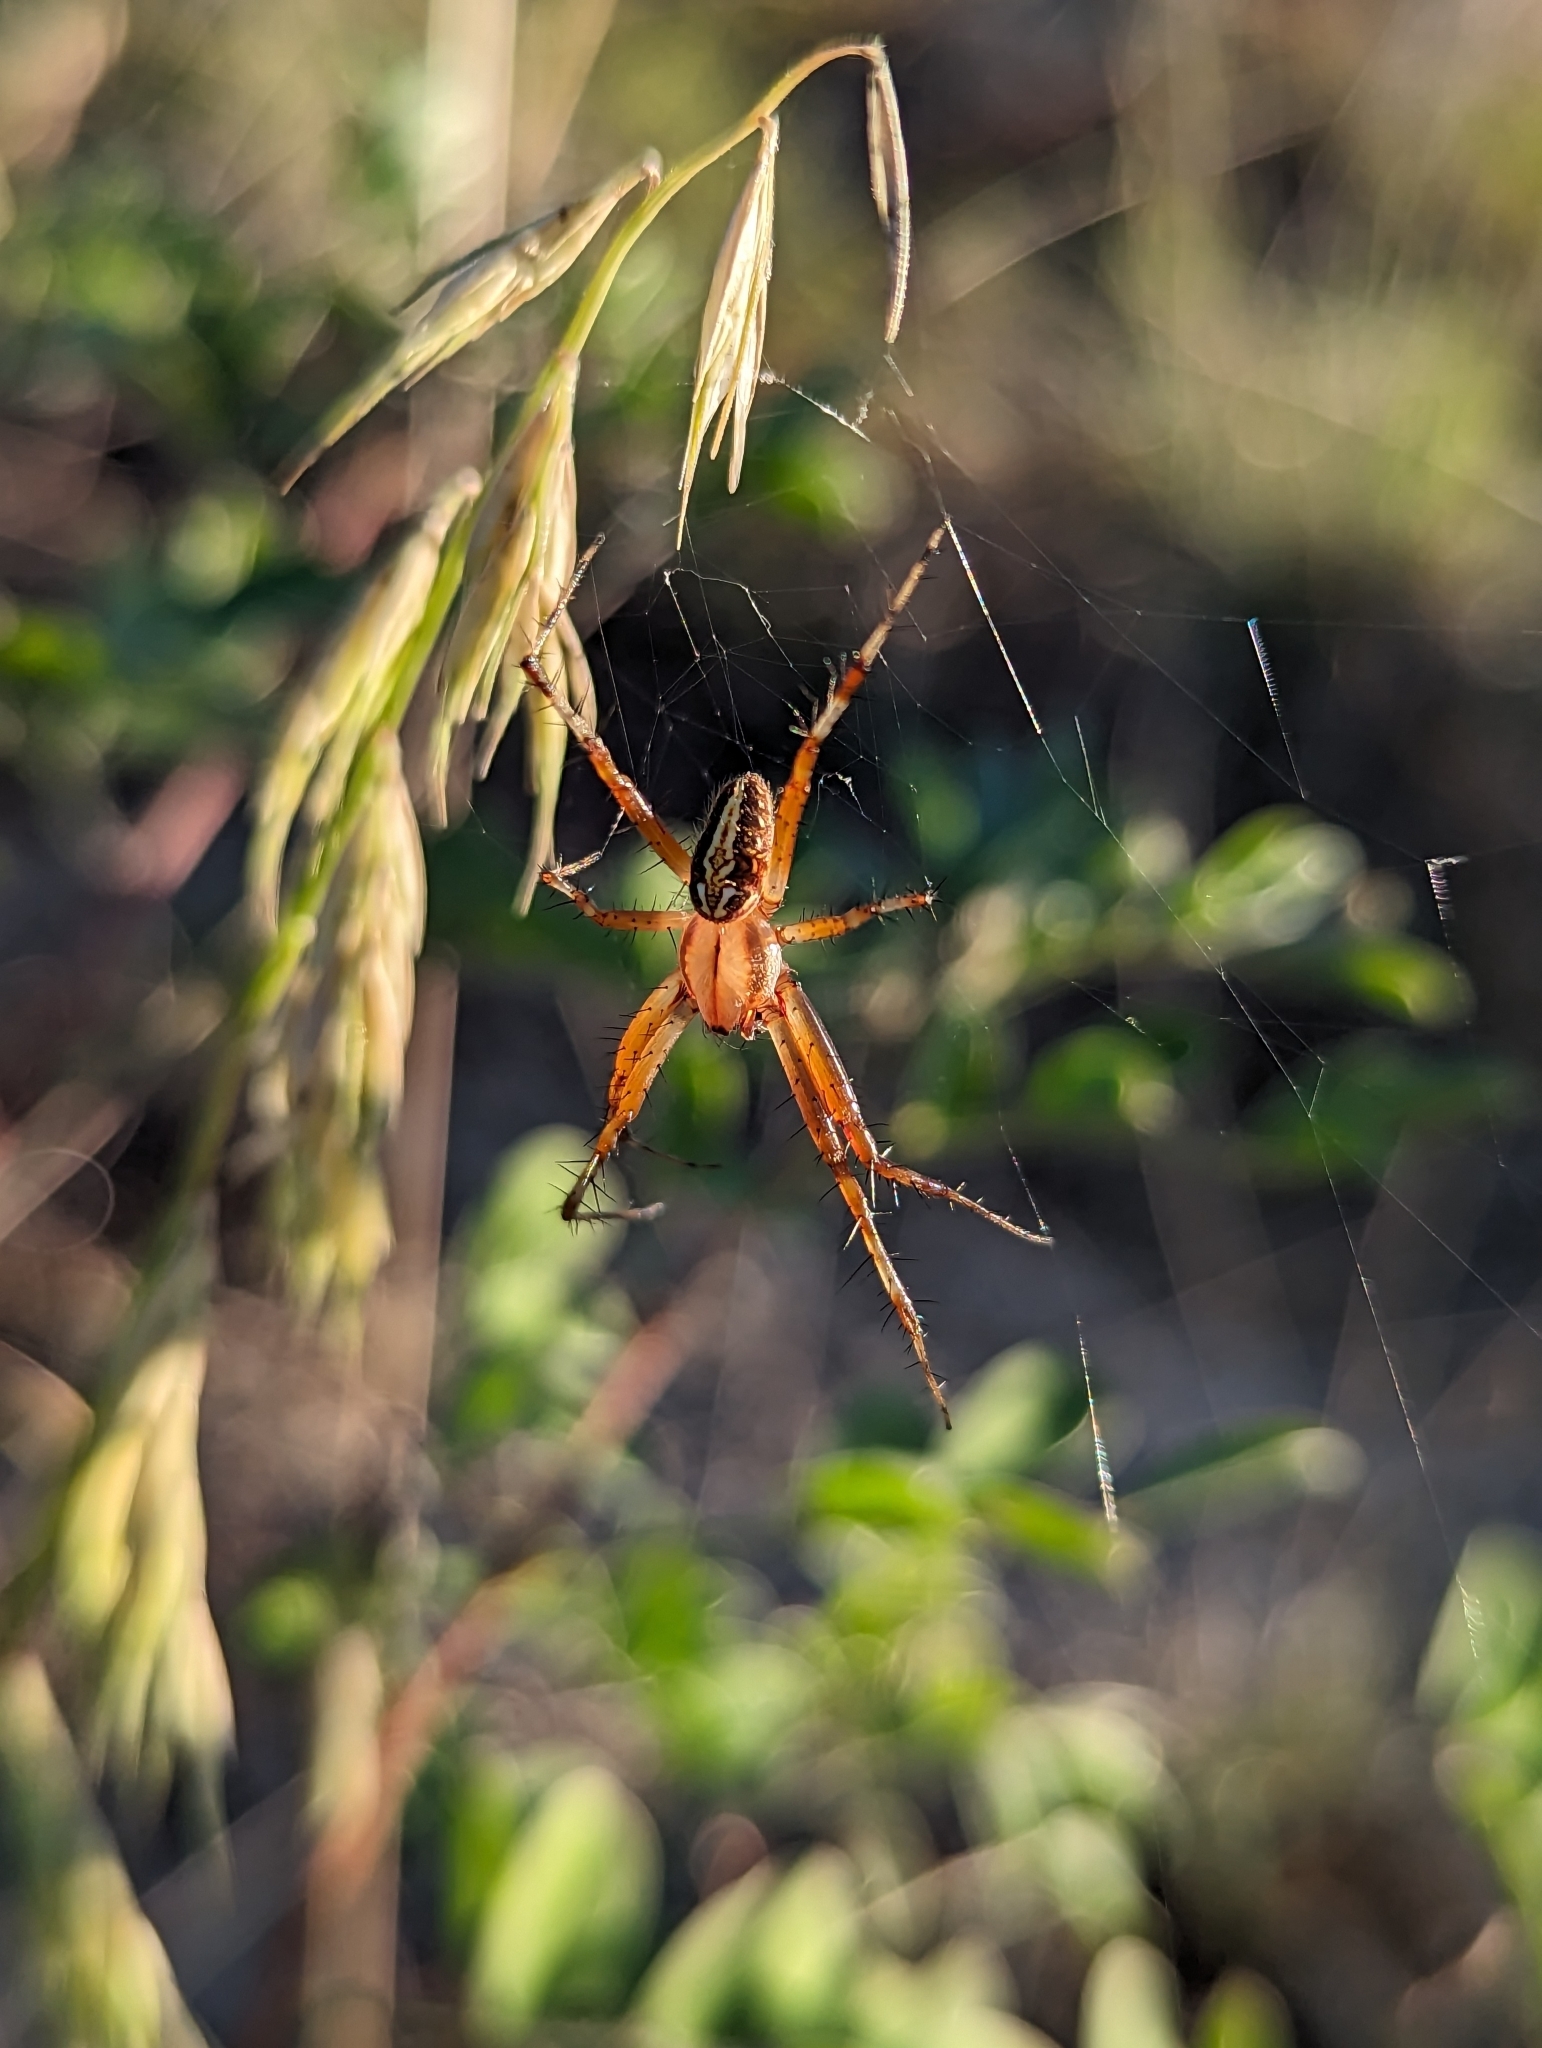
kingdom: Animalia
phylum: Arthropoda
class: Arachnida
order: Araneae
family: Araneidae
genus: Neoscona
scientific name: Neoscona oaxacensis
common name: Orb weavers
